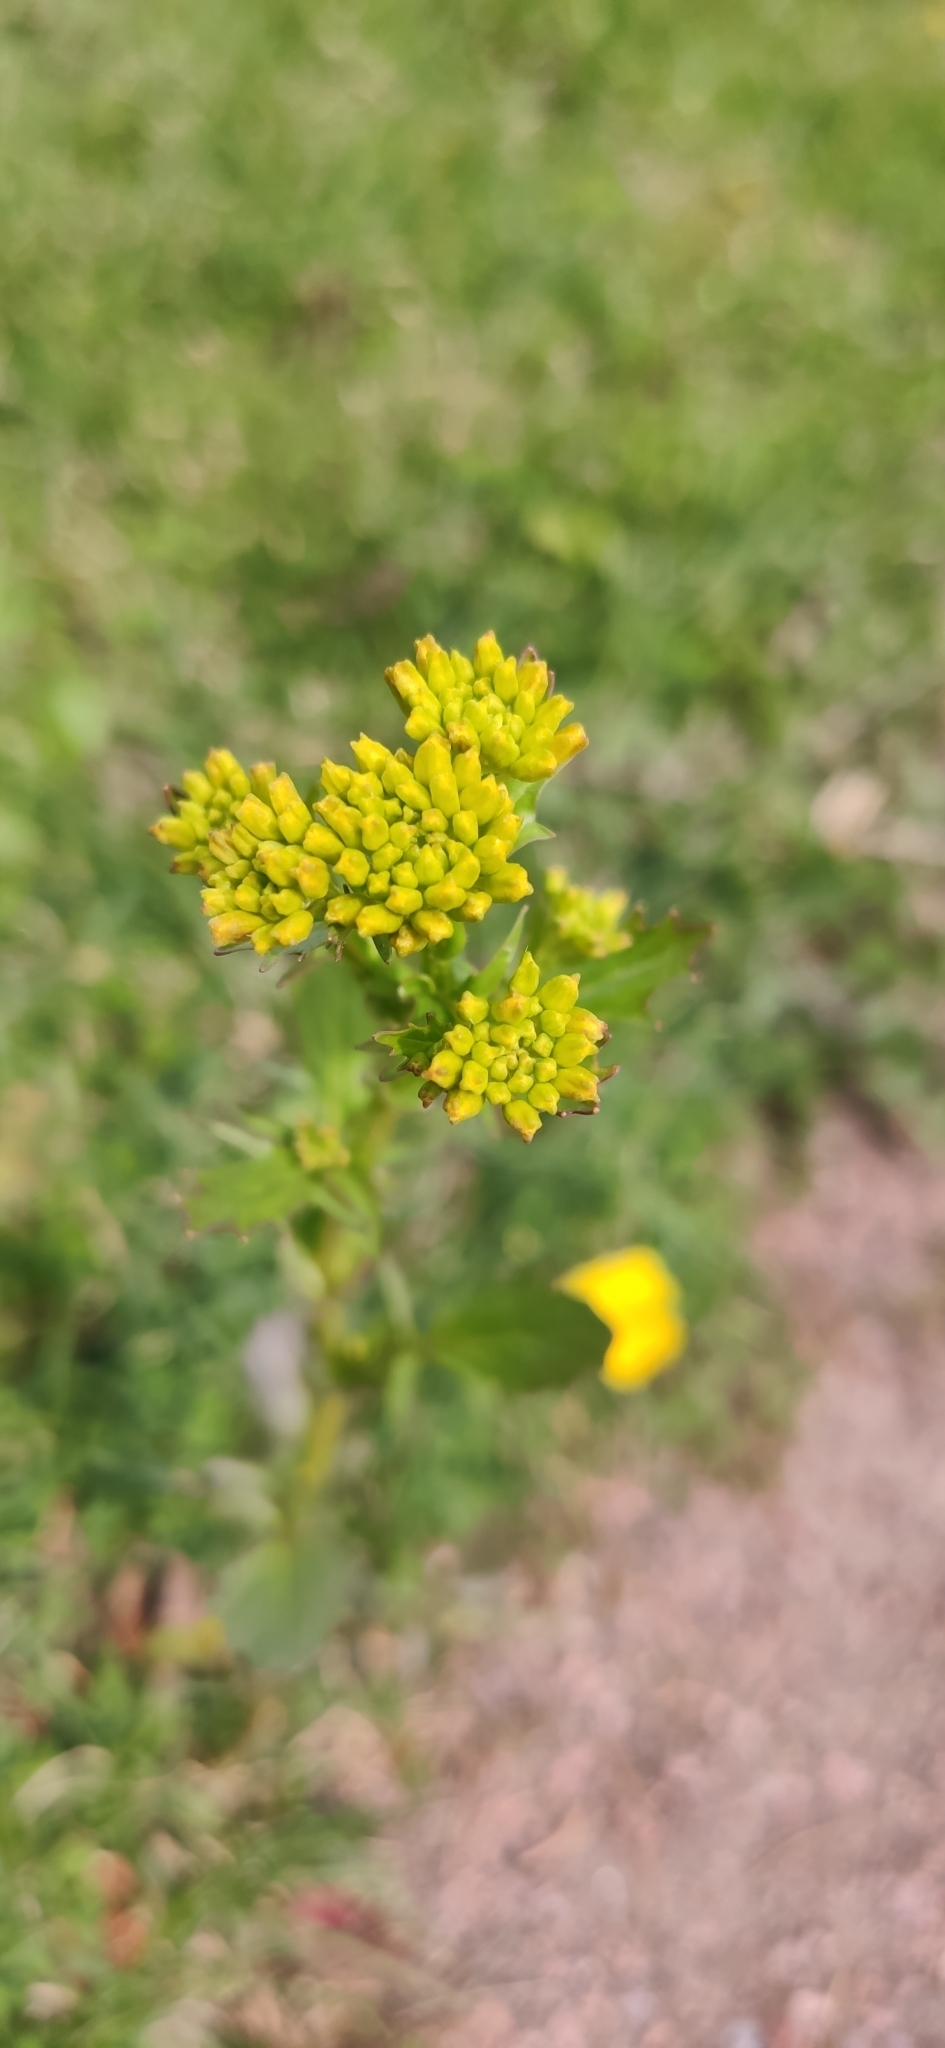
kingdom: Plantae
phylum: Tracheophyta
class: Magnoliopsida
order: Brassicales
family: Brassicaceae
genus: Barbarea
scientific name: Barbarea vulgaris
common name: Cressy-greens
